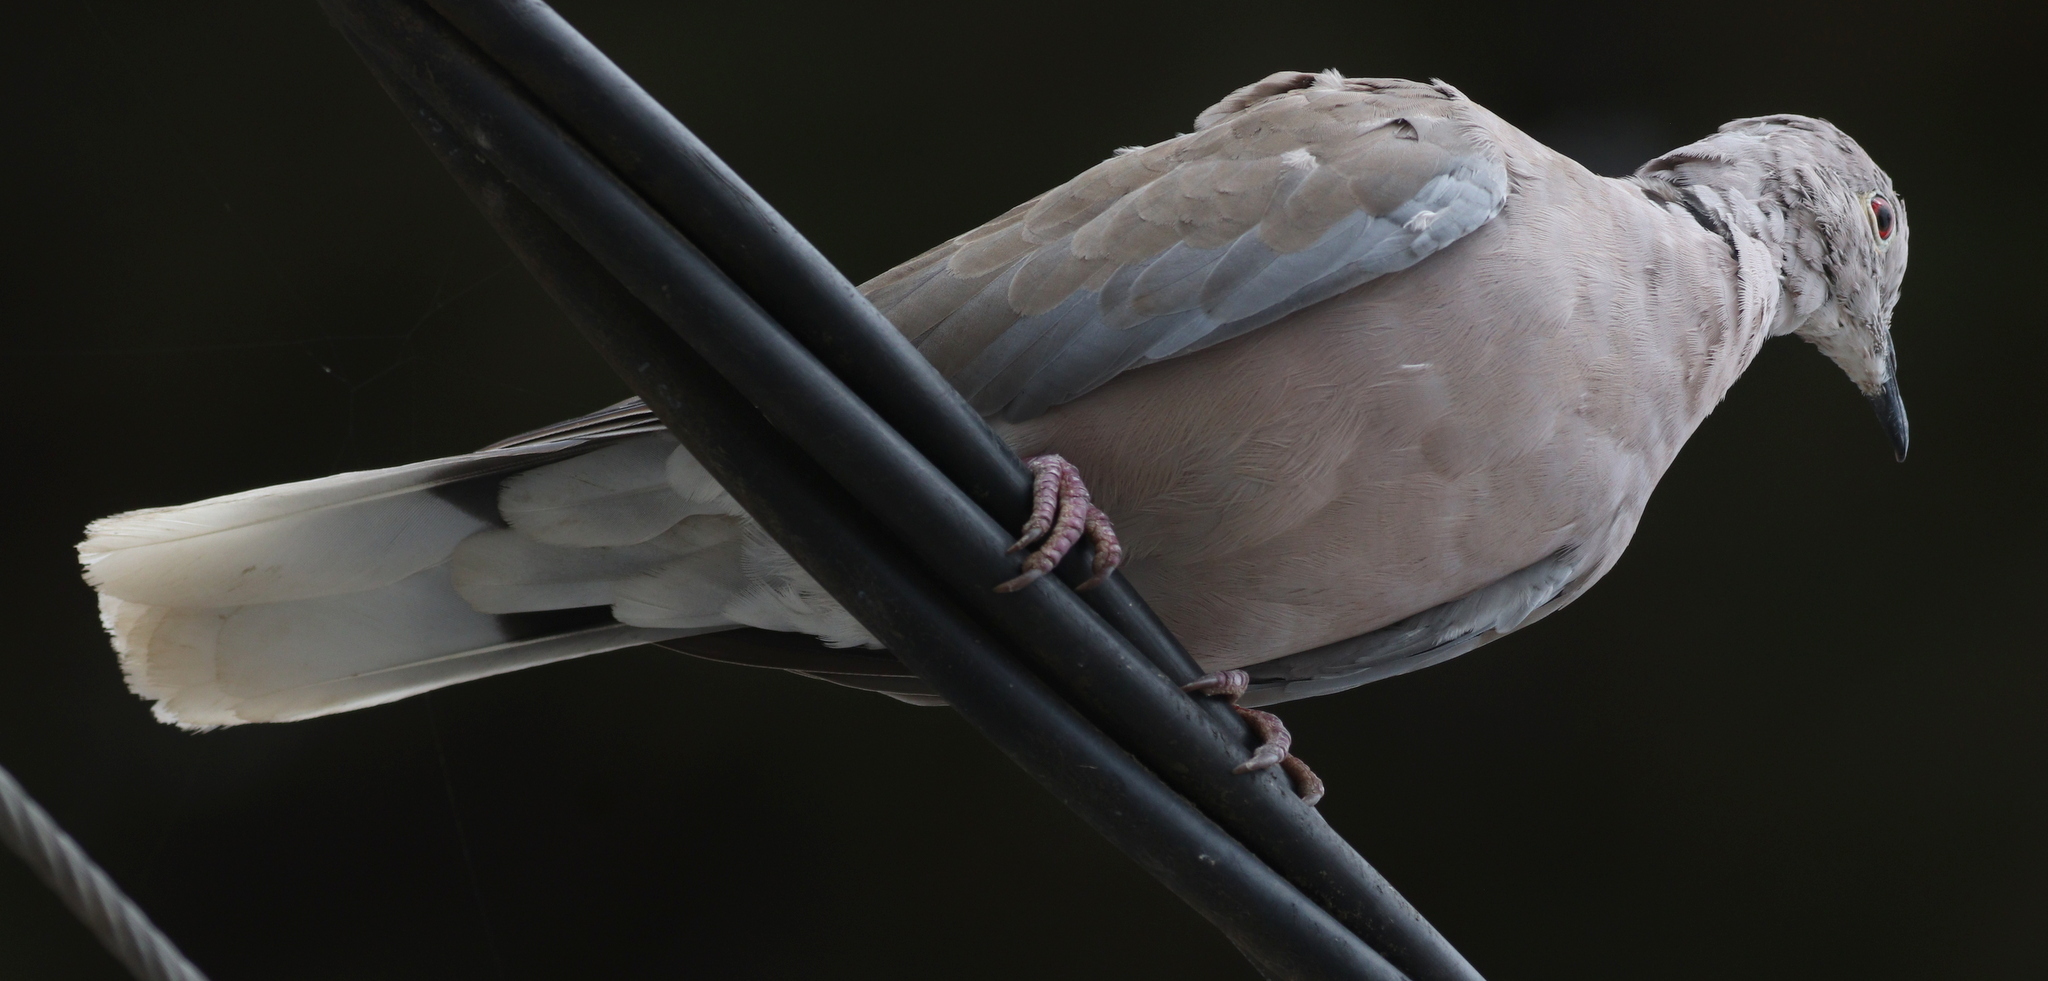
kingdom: Animalia
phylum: Chordata
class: Aves
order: Columbiformes
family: Columbidae
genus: Streptopelia
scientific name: Streptopelia roseogrisea
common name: African collared dove
